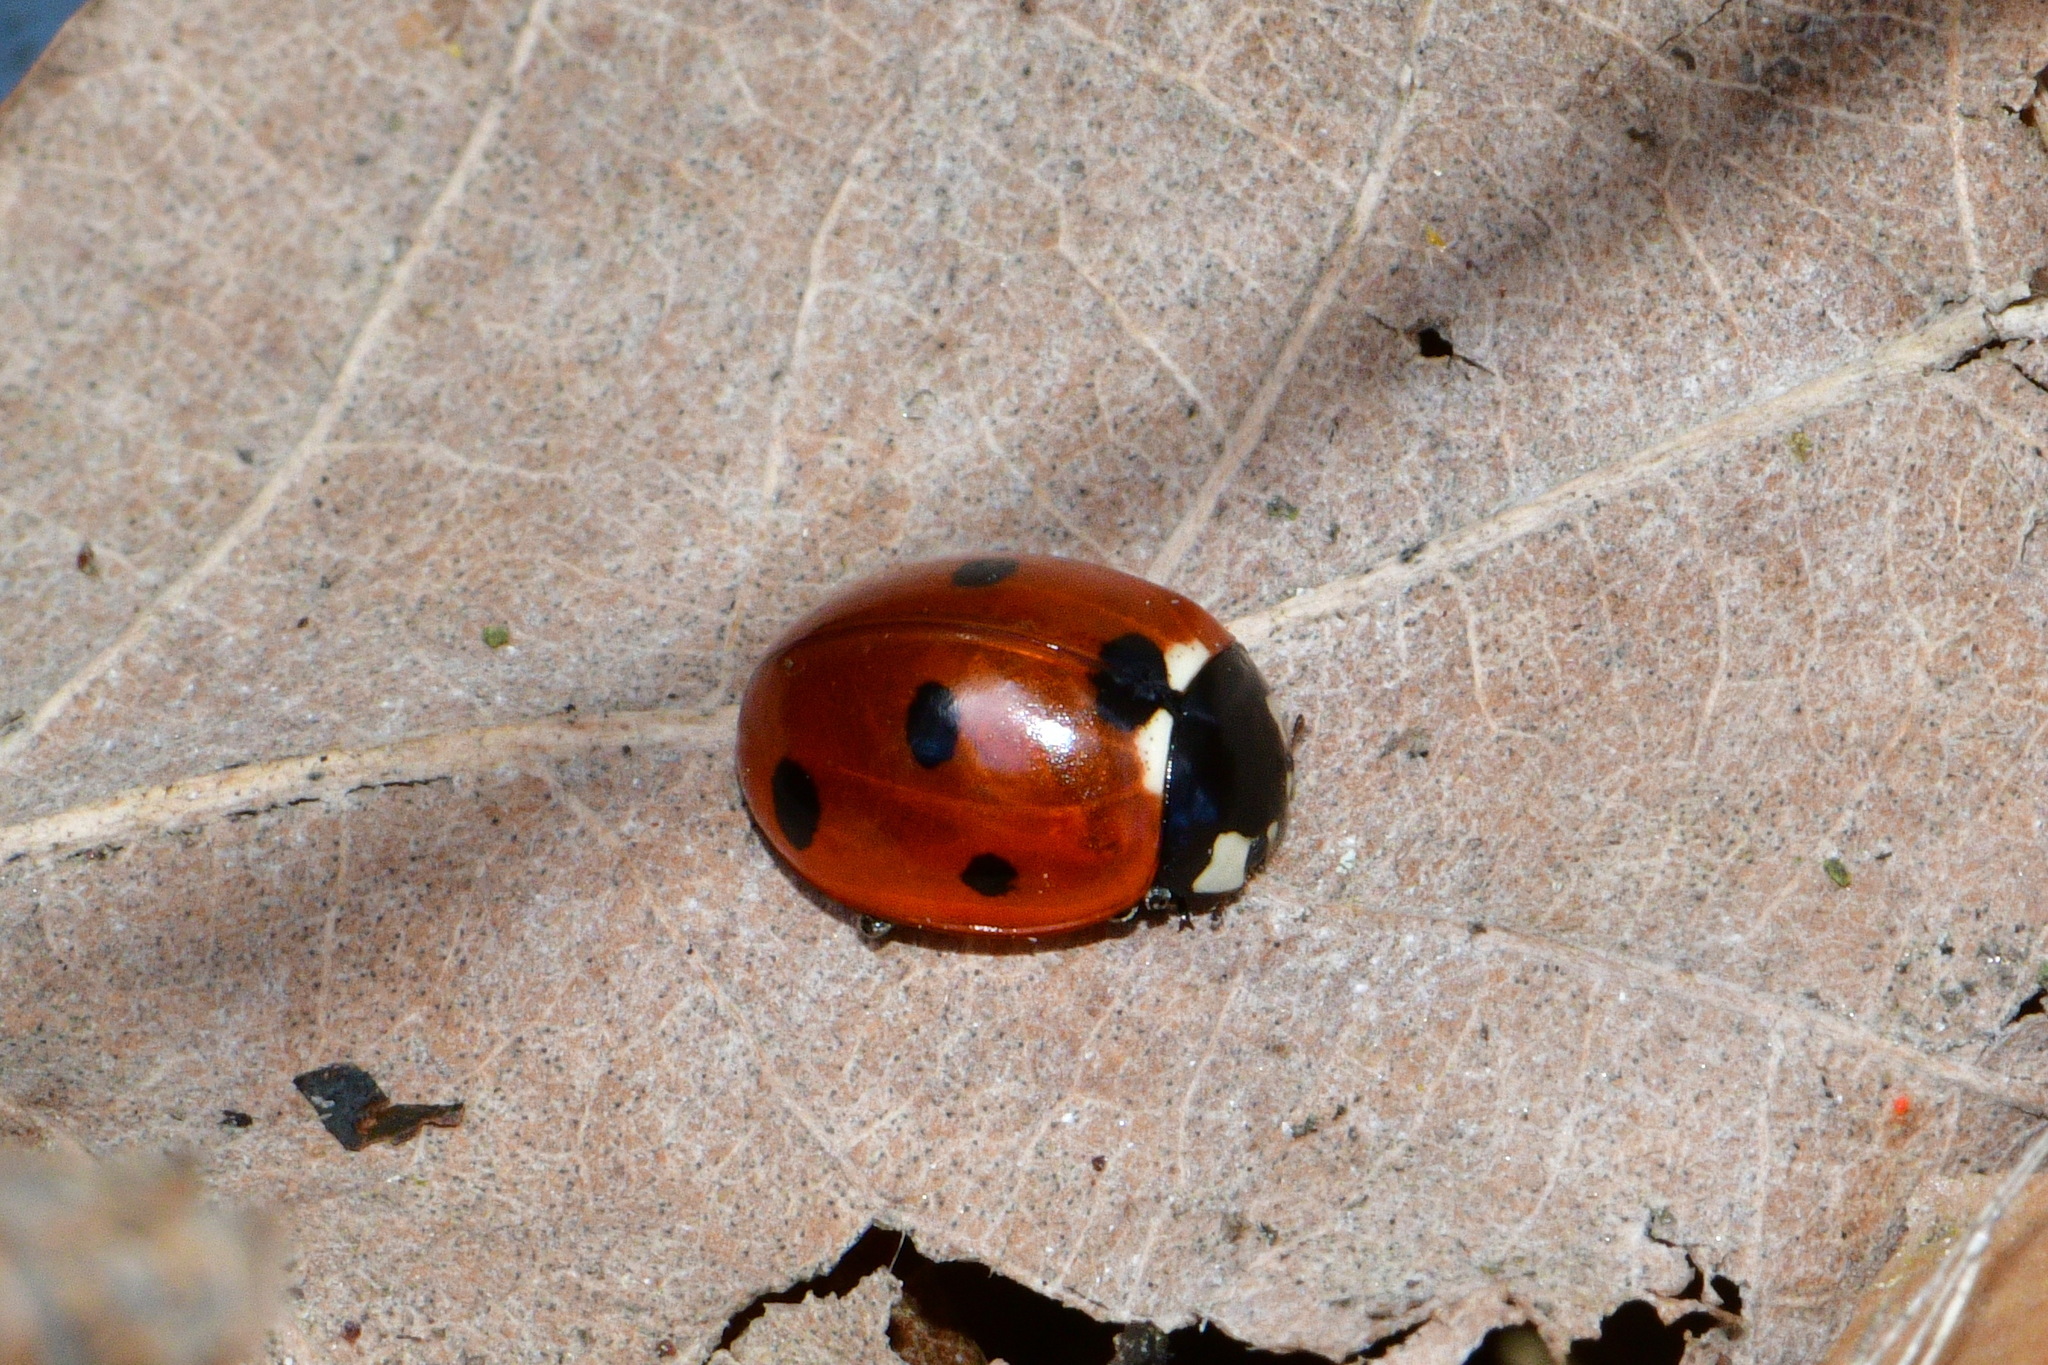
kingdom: Animalia
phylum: Arthropoda
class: Insecta
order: Coleoptera
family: Coccinellidae
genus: Coccinella
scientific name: Coccinella septempunctata
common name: Sevenspotted lady beetle
